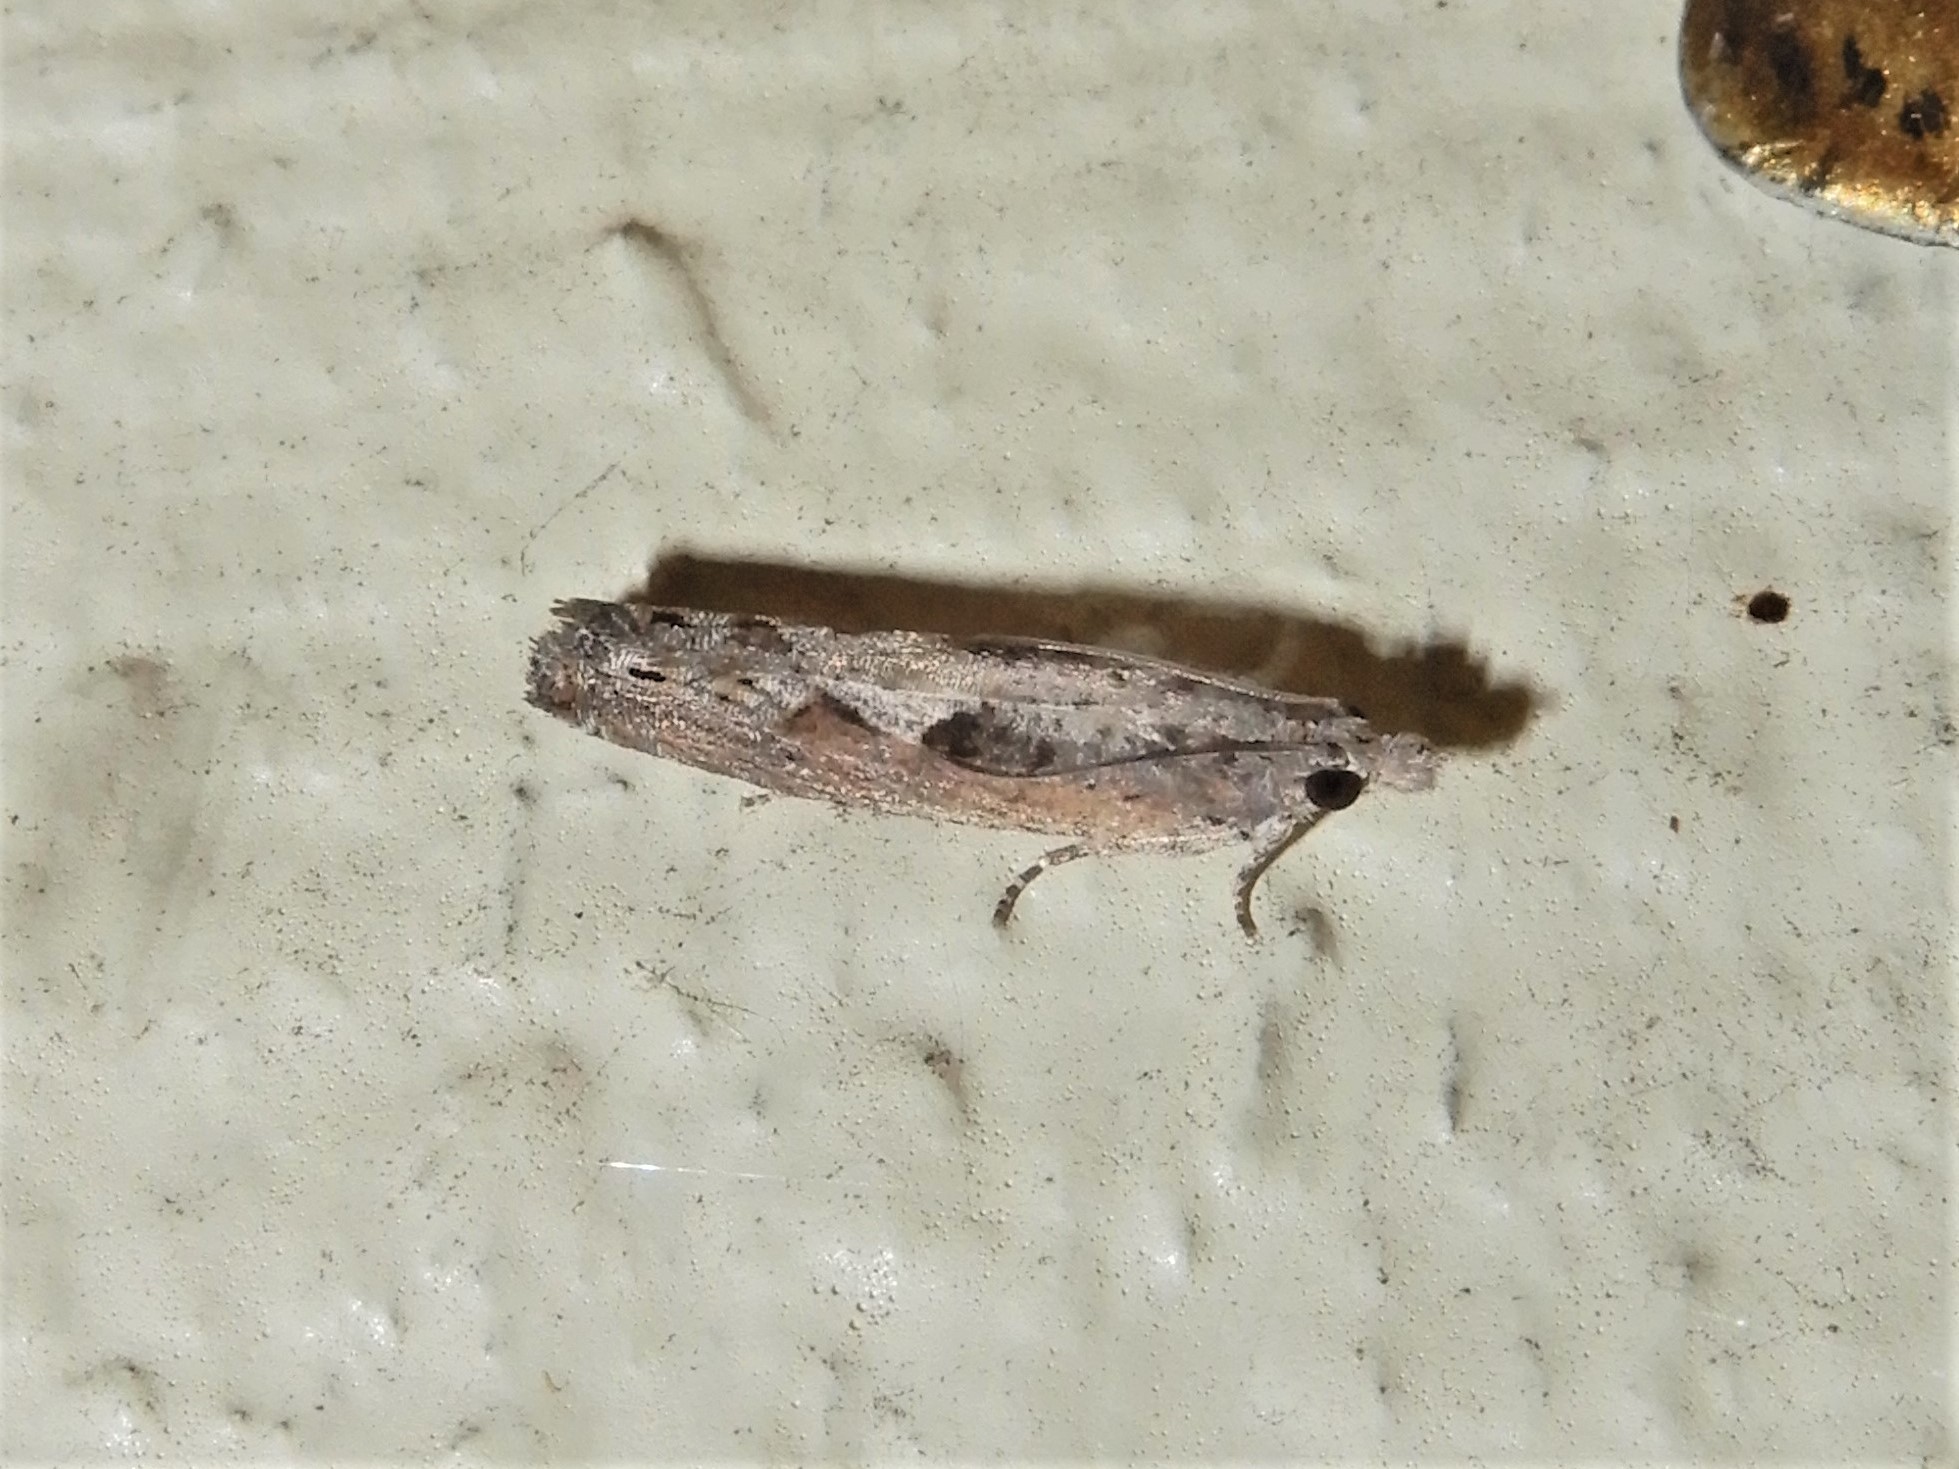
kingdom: Animalia
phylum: Arthropoda
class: Insecta
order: Lepidoptera
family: Tortricidae
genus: Strepsicrates
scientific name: Strepsicrates macropetana
